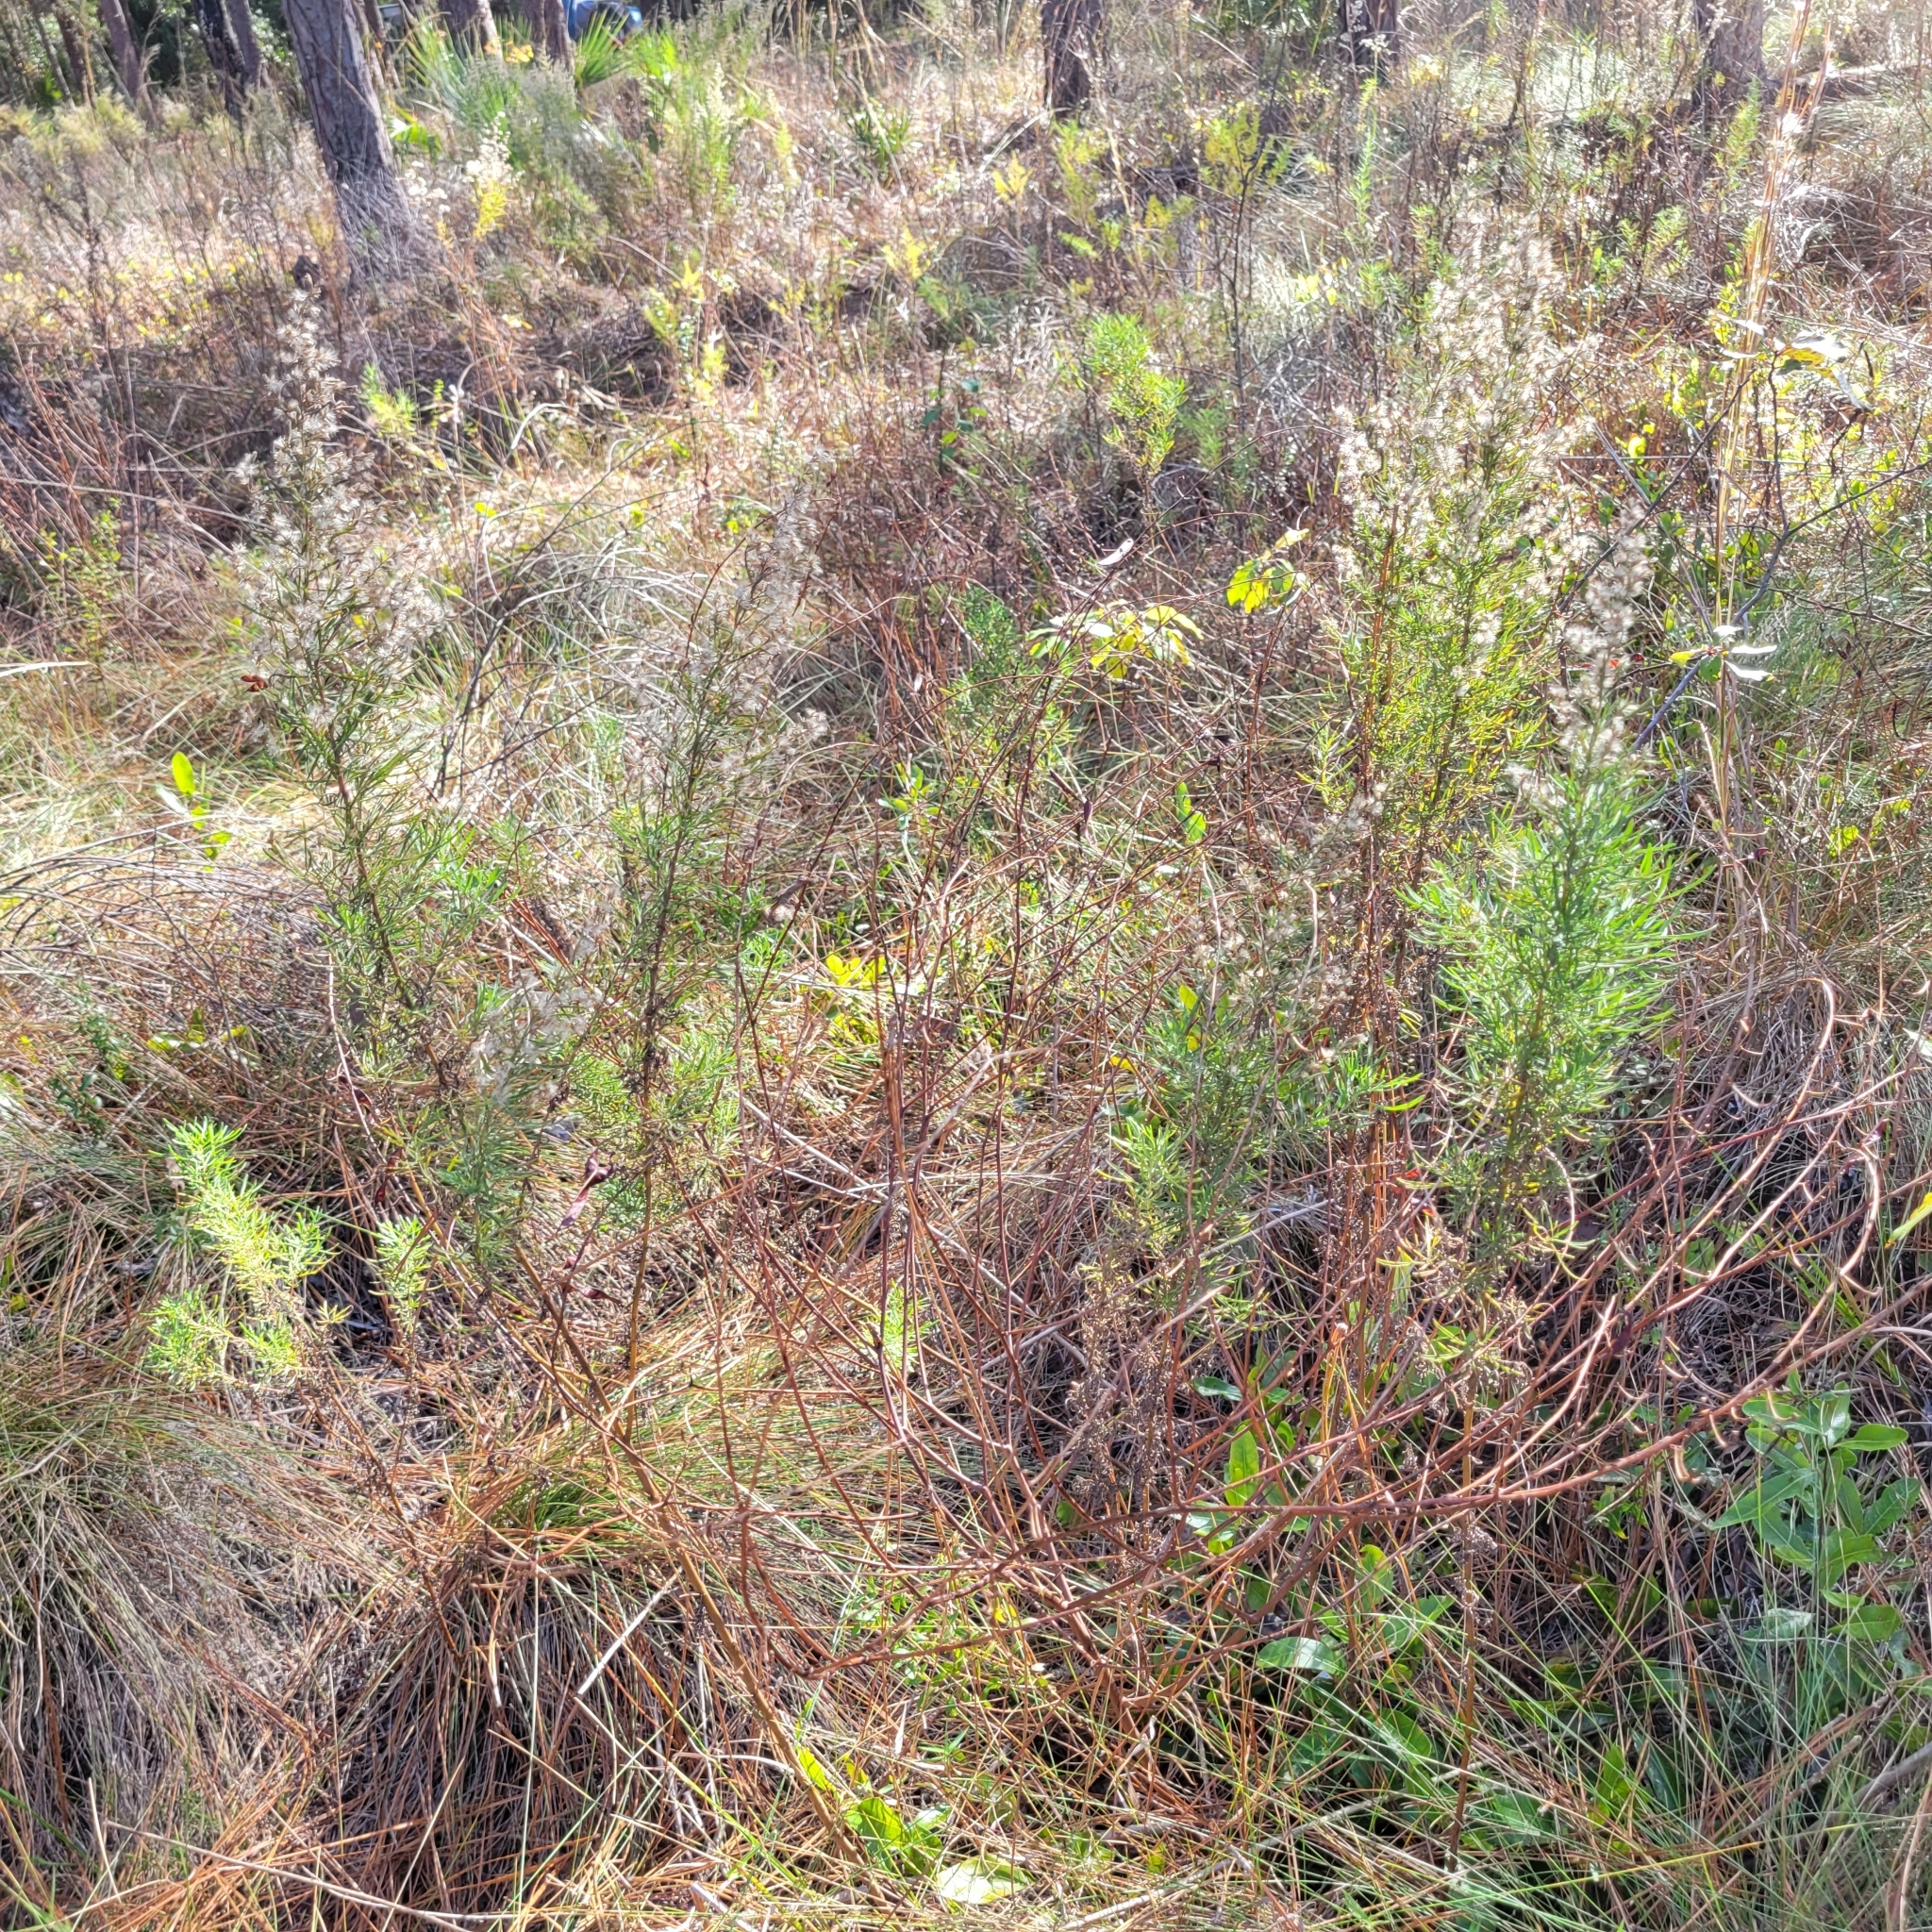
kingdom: Plantae
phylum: Tracheophyta
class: Magnoliopsida
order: Asterales
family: Asteraceae
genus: Eupatorium
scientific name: Eupatorium compositifolium
